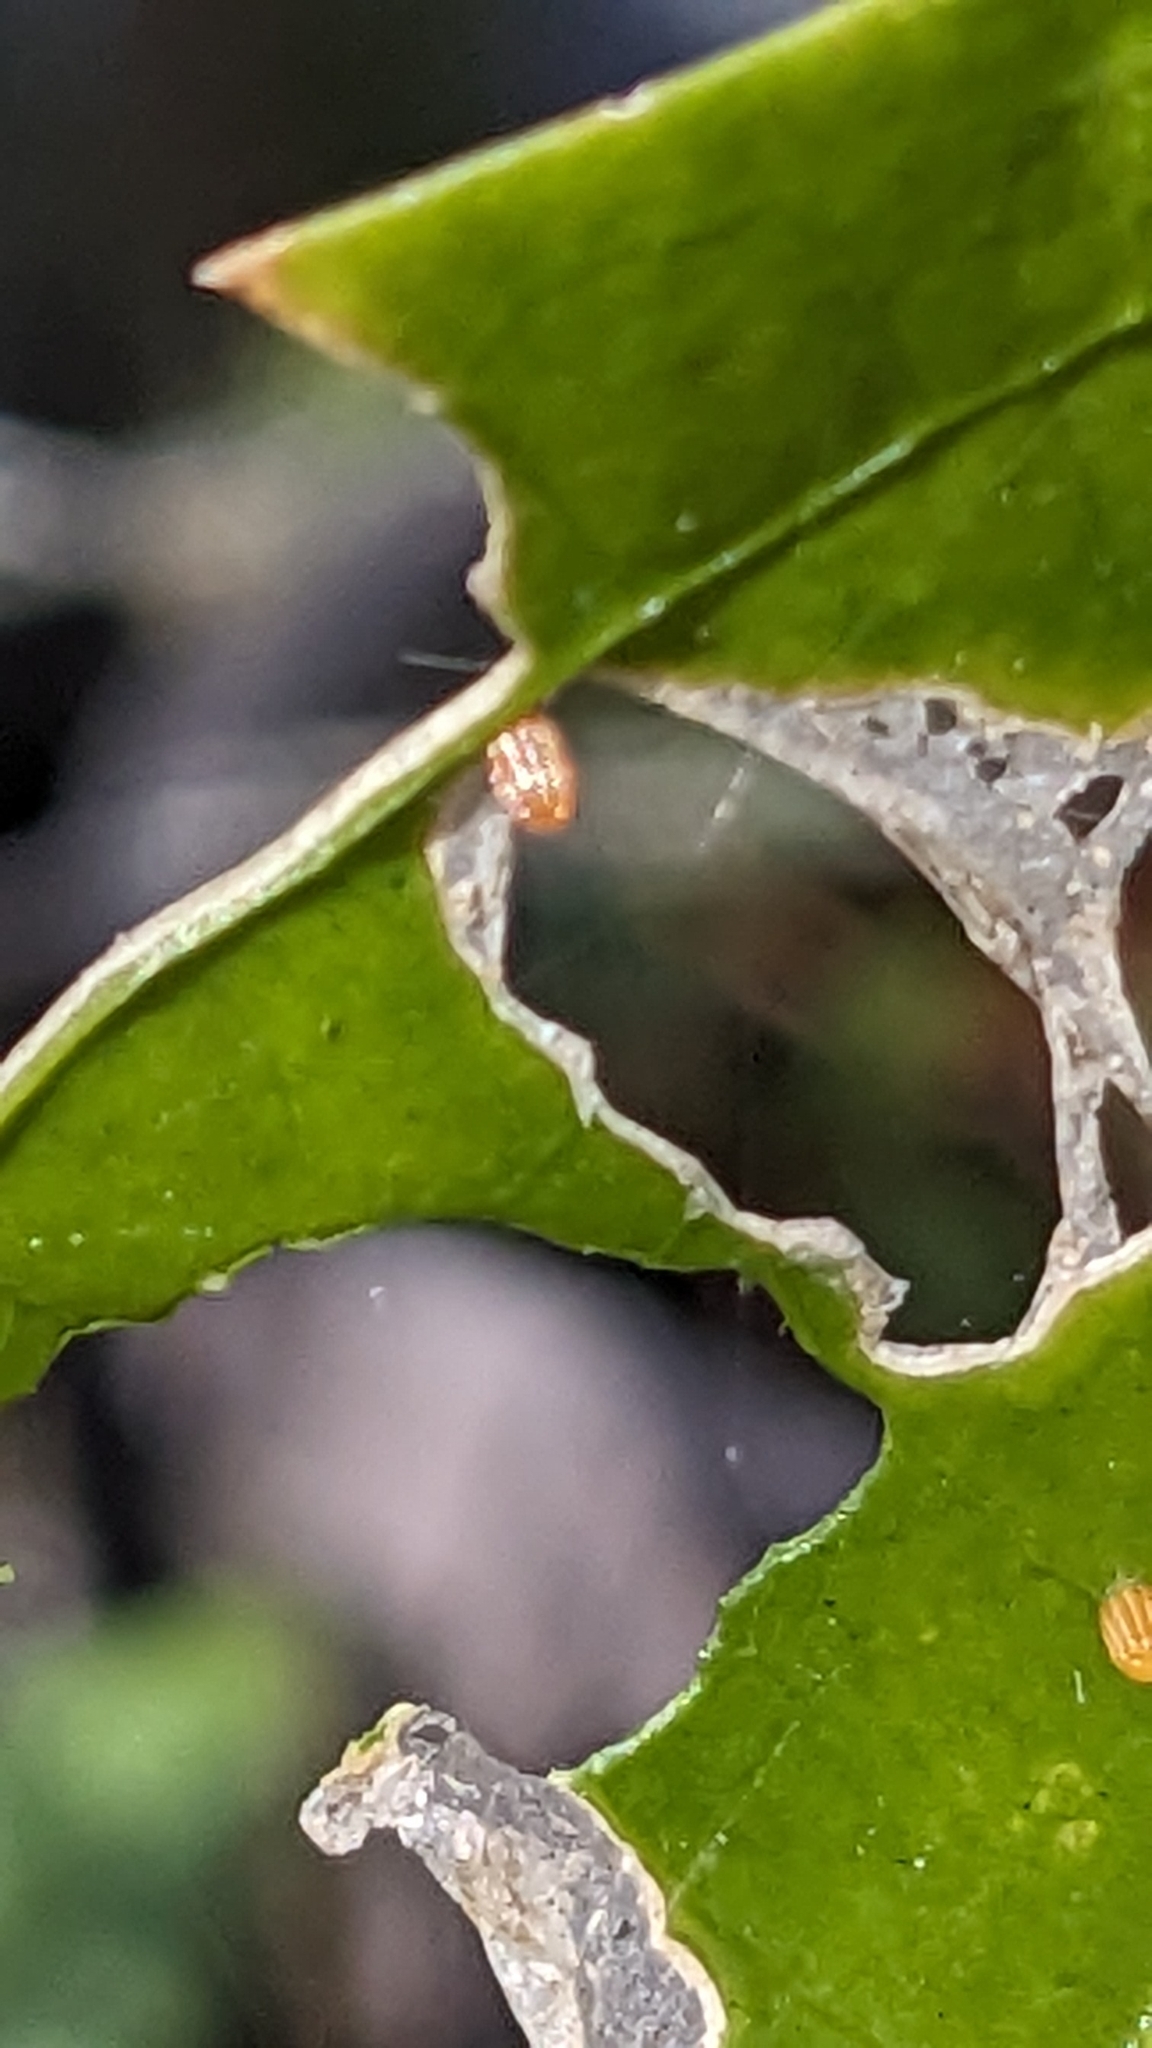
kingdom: Animalia
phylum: Arthropoda
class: Insecta
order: Lepidoptera
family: Nymphalidae
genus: Dione
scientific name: Dione vanillae
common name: Gulf fritillary
